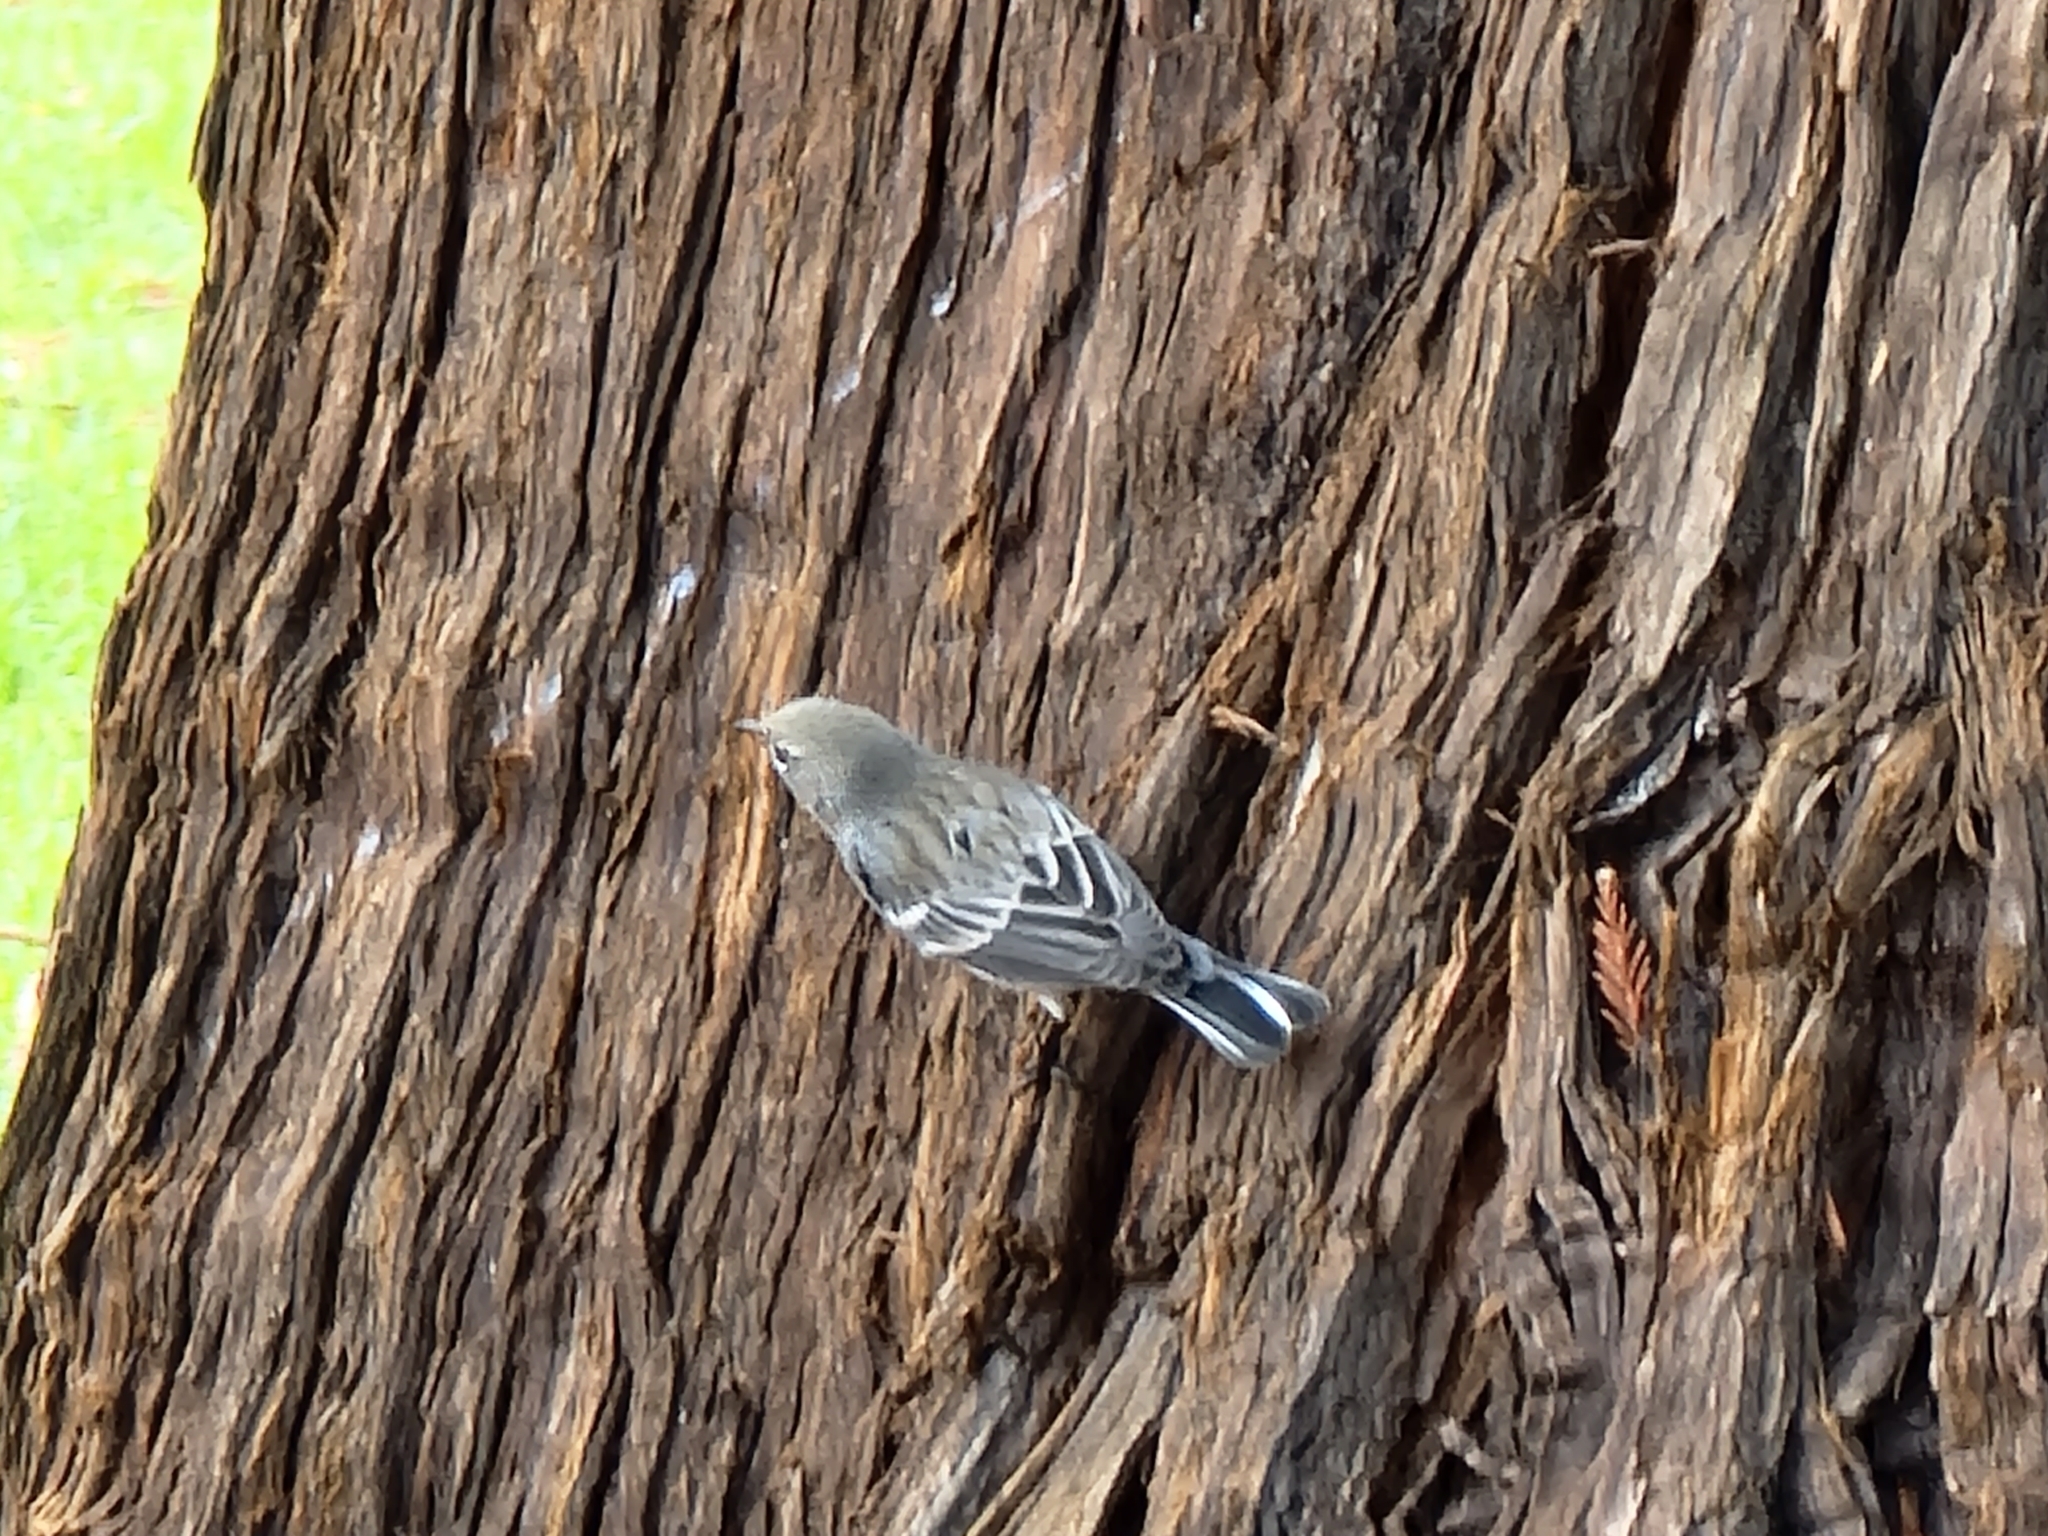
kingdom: Animalia
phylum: Chordata
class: Aves
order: Passeriformes
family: Parulidae
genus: Setophaga
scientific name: Setophaga auduboni
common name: Audubon's warbler
